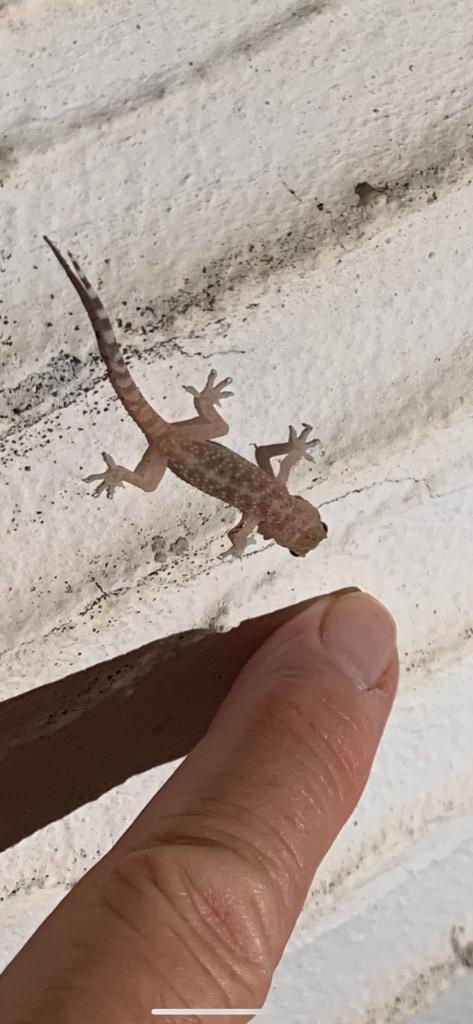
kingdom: Animalia
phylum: Chordata
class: Squamata
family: Gekkonidae
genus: Hemidactylus
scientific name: Hemidactylus turcicus
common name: Turkish gecko
